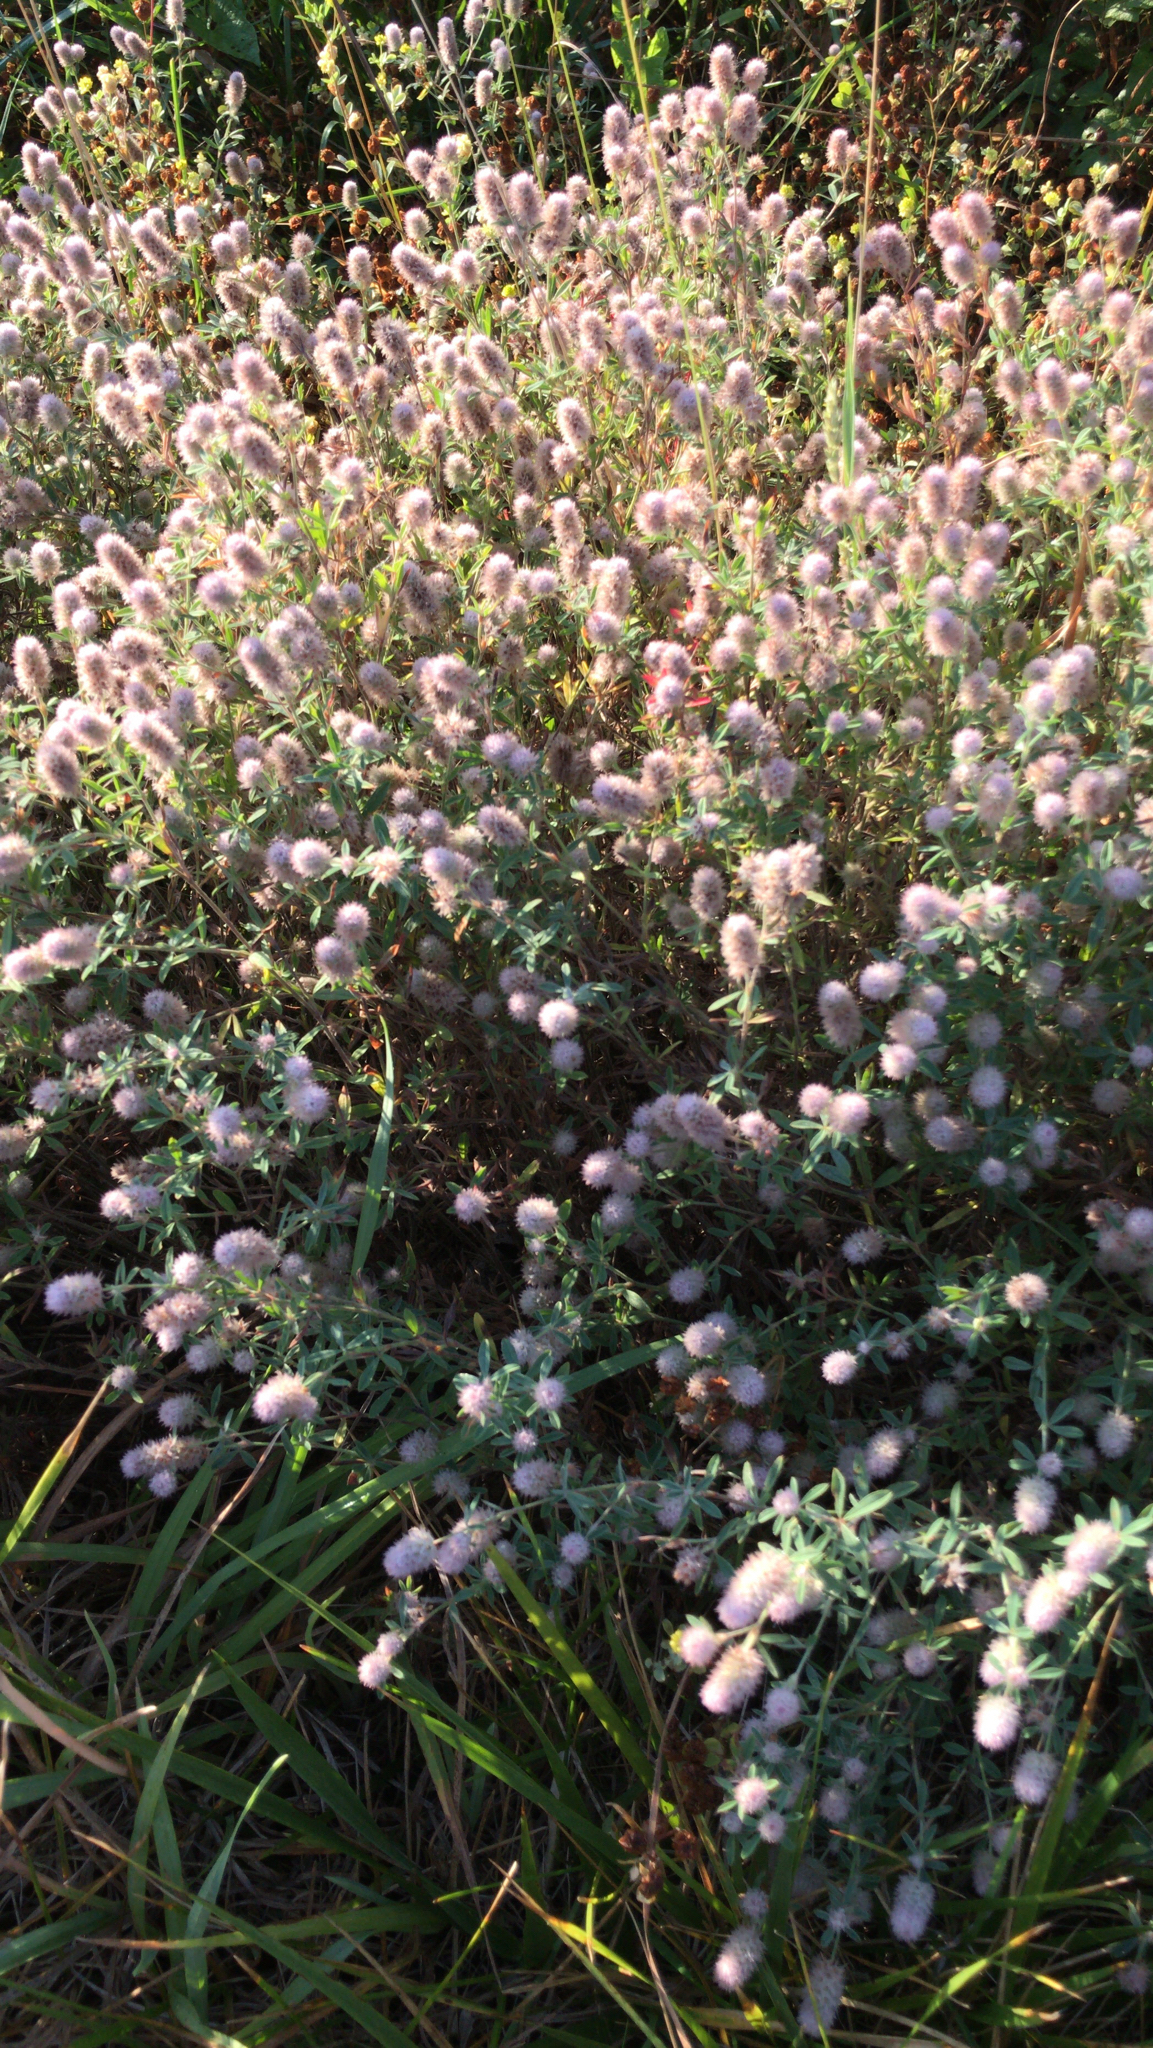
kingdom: Plantae
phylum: Tracheophyta
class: Magnoliopsida
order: Fabales
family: Fabaceae
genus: Trifolium
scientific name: Trifolium arvense
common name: Hare's-foot clover
